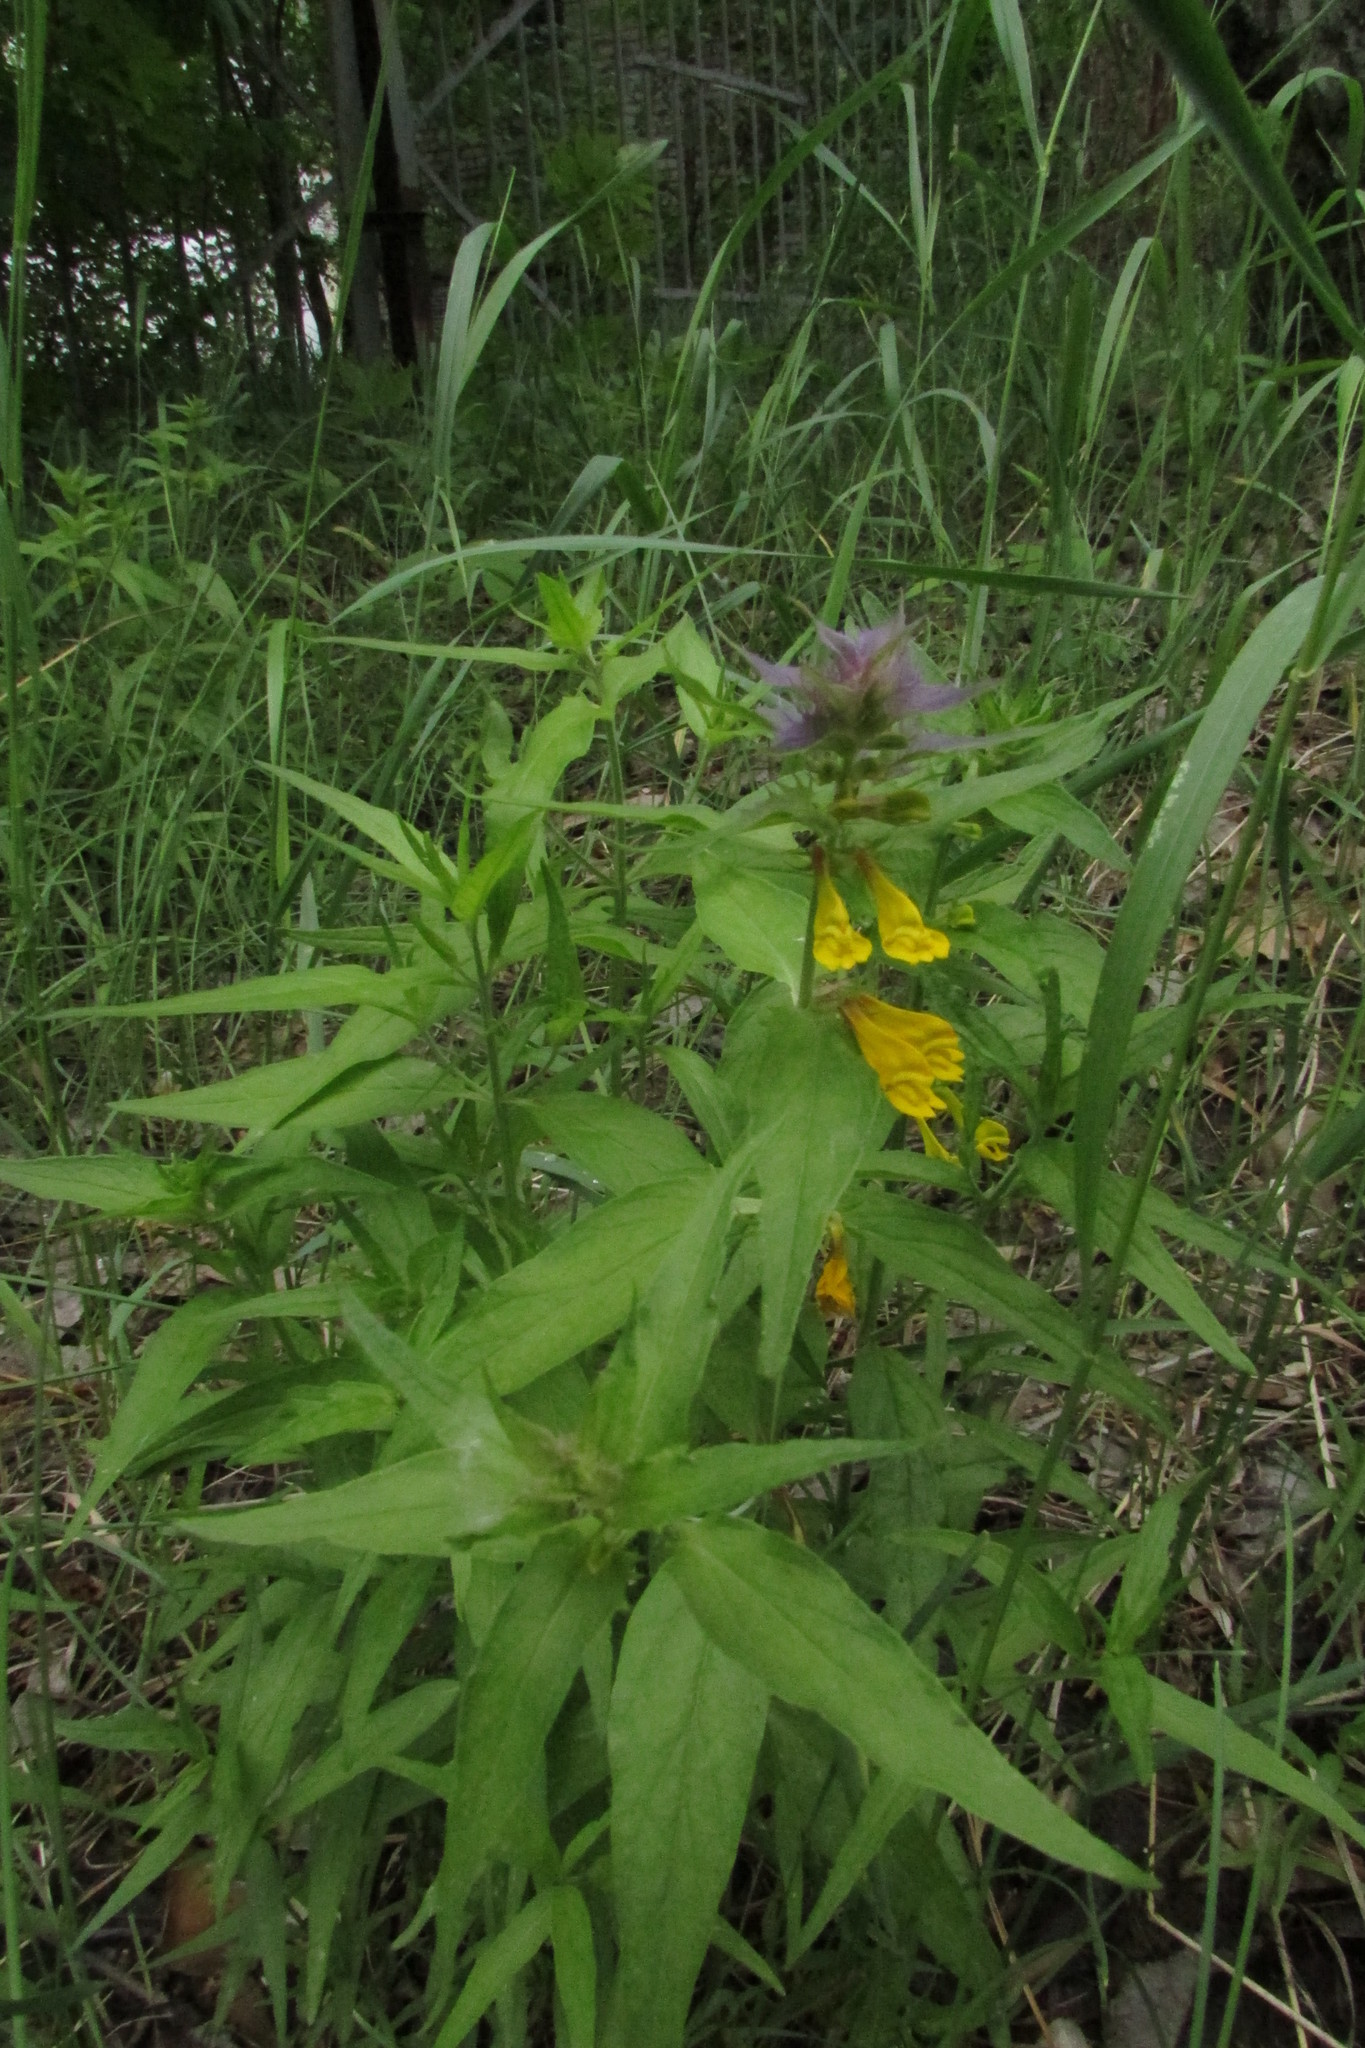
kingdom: Plantae
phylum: Tracheophyta
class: Magnoliopsida
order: Lamiales
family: Orobanchaceae
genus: Melampyrum
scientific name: Melampyrum nemorosum
